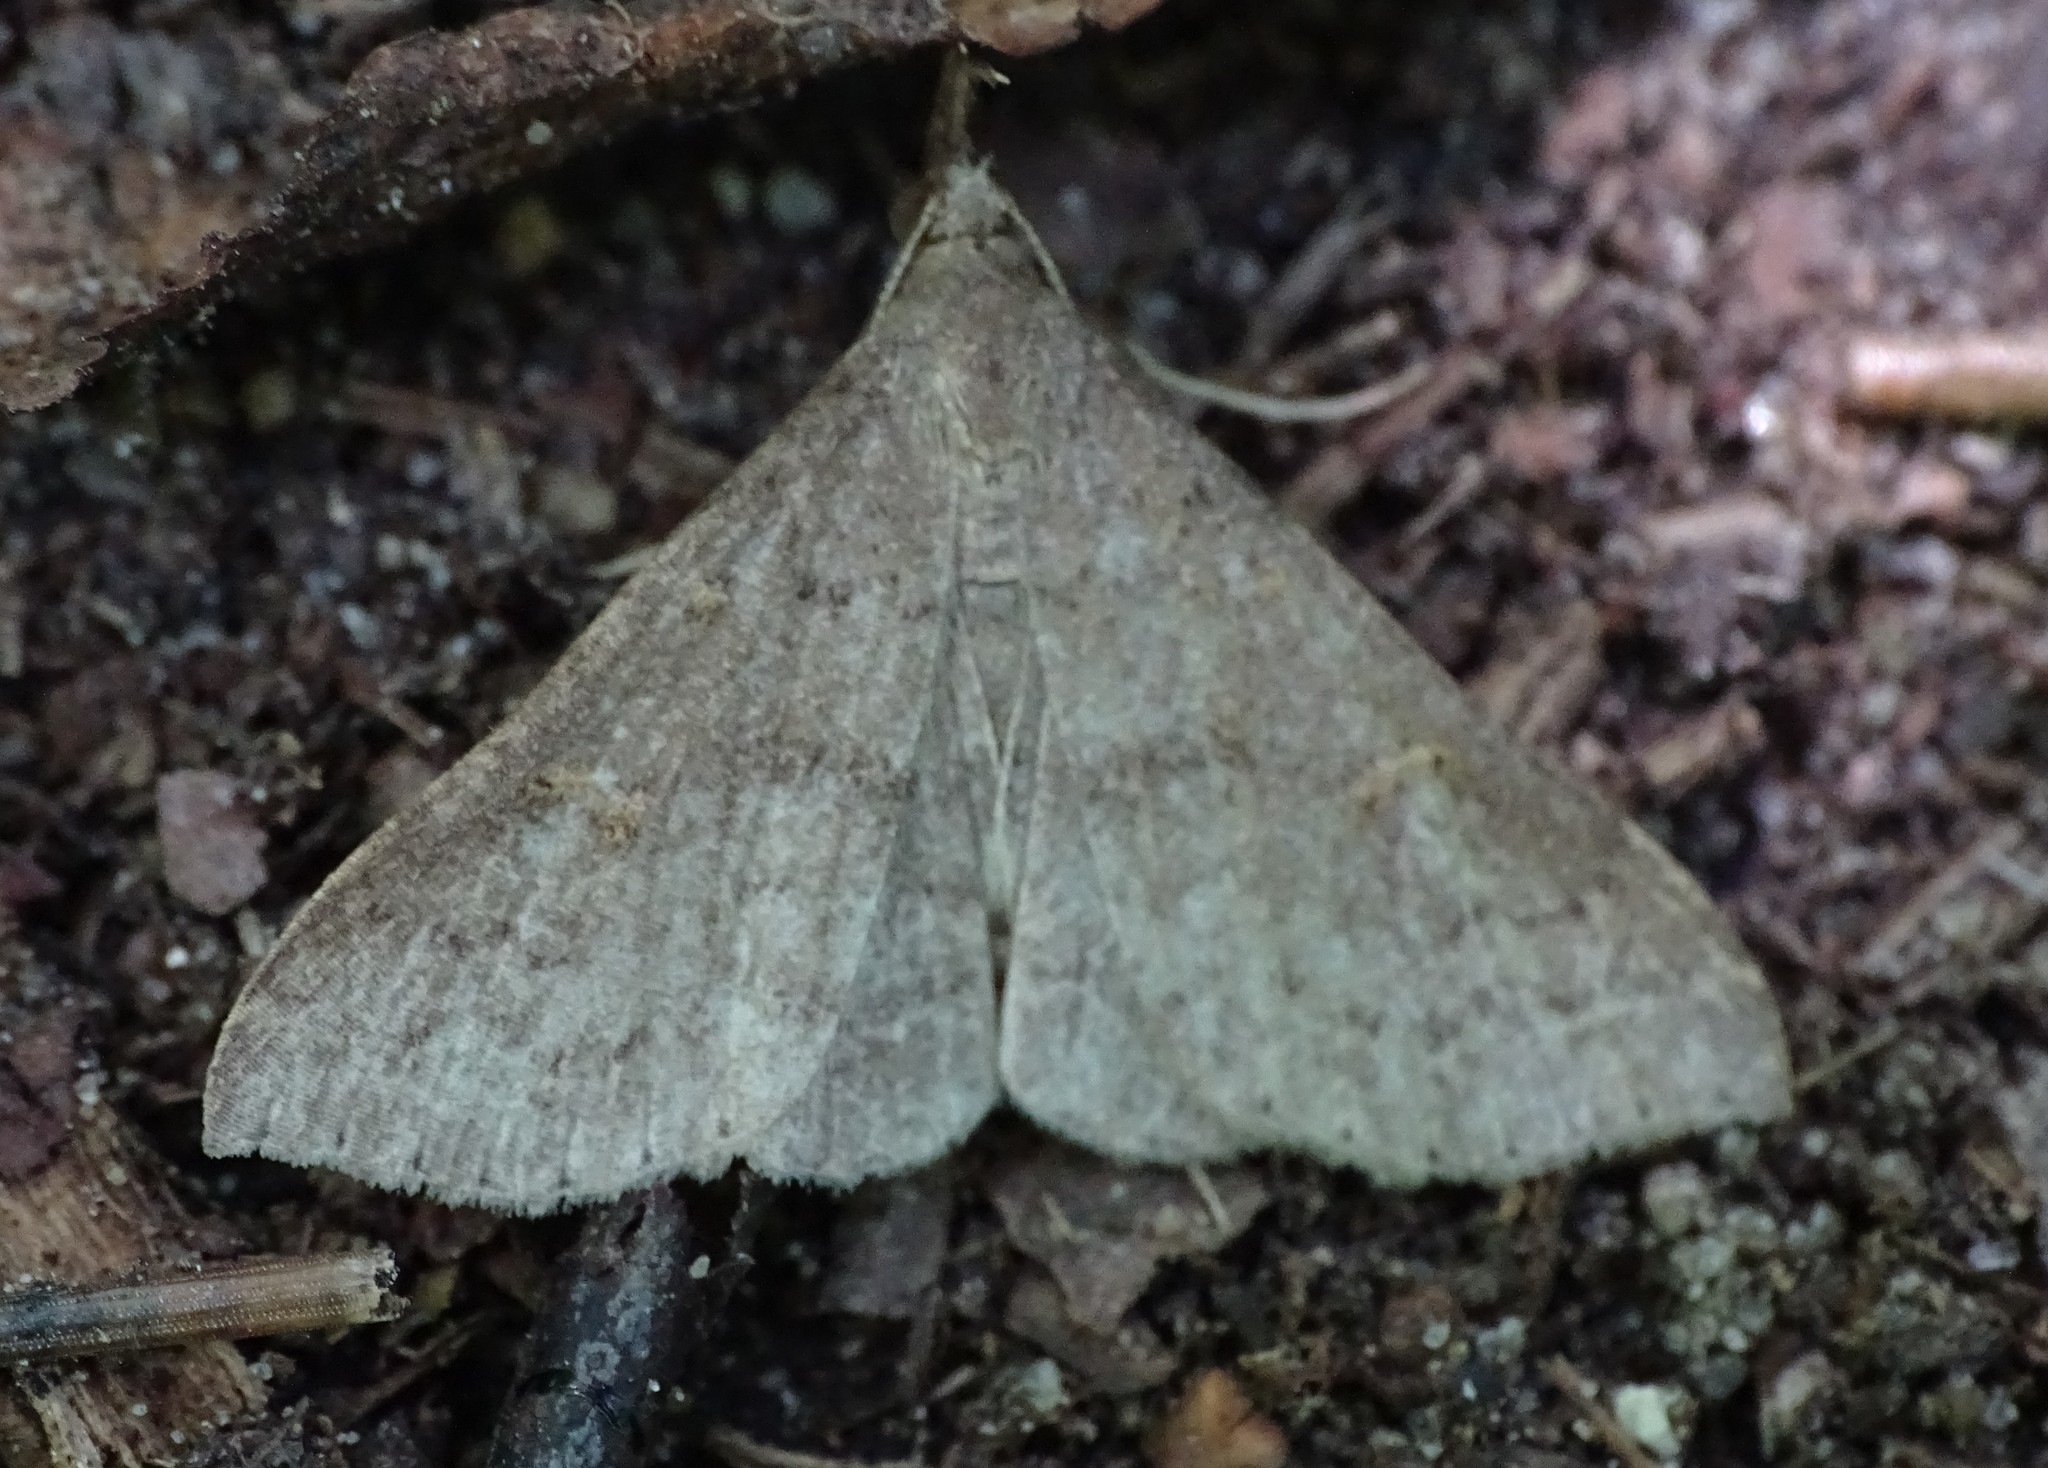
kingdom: Animalia
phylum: Arthropoda
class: Insecta
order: Lepidoptera
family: Erebidae
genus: Renia
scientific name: Renia discoloralis
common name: Discolored renia moth
